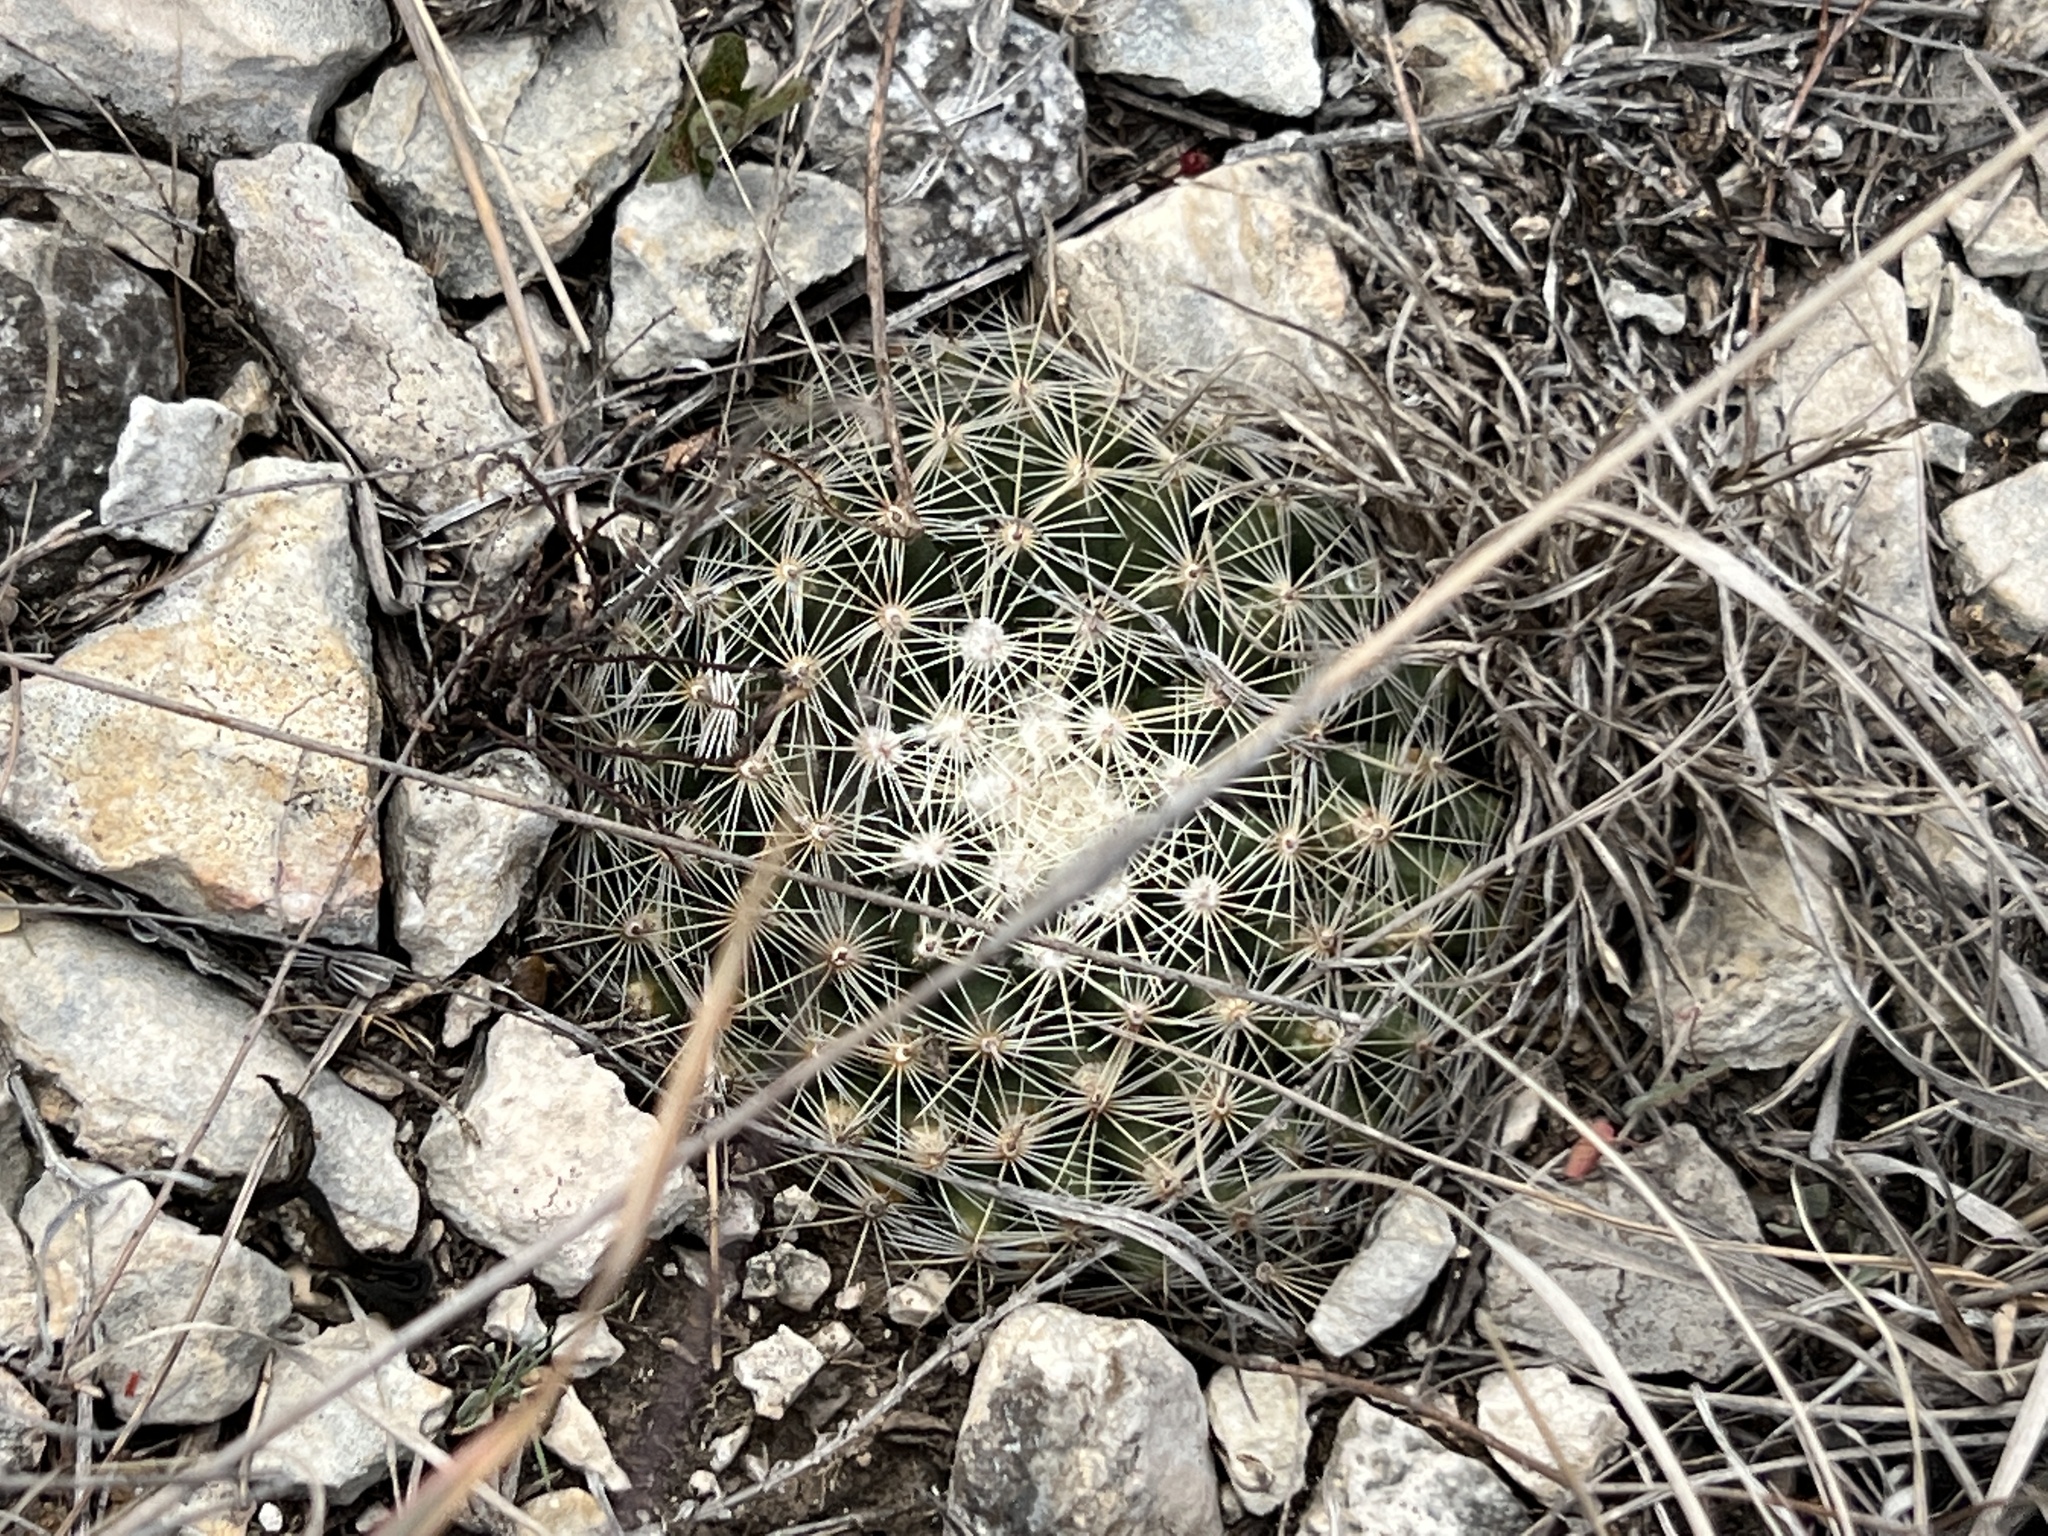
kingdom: Plantae
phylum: Tracheophyta
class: Magnoliopsida
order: Caryophyllales
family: Cactaceae
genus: Mammillaria
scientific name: Mammillaria heyderi
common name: Little nipple cactus
